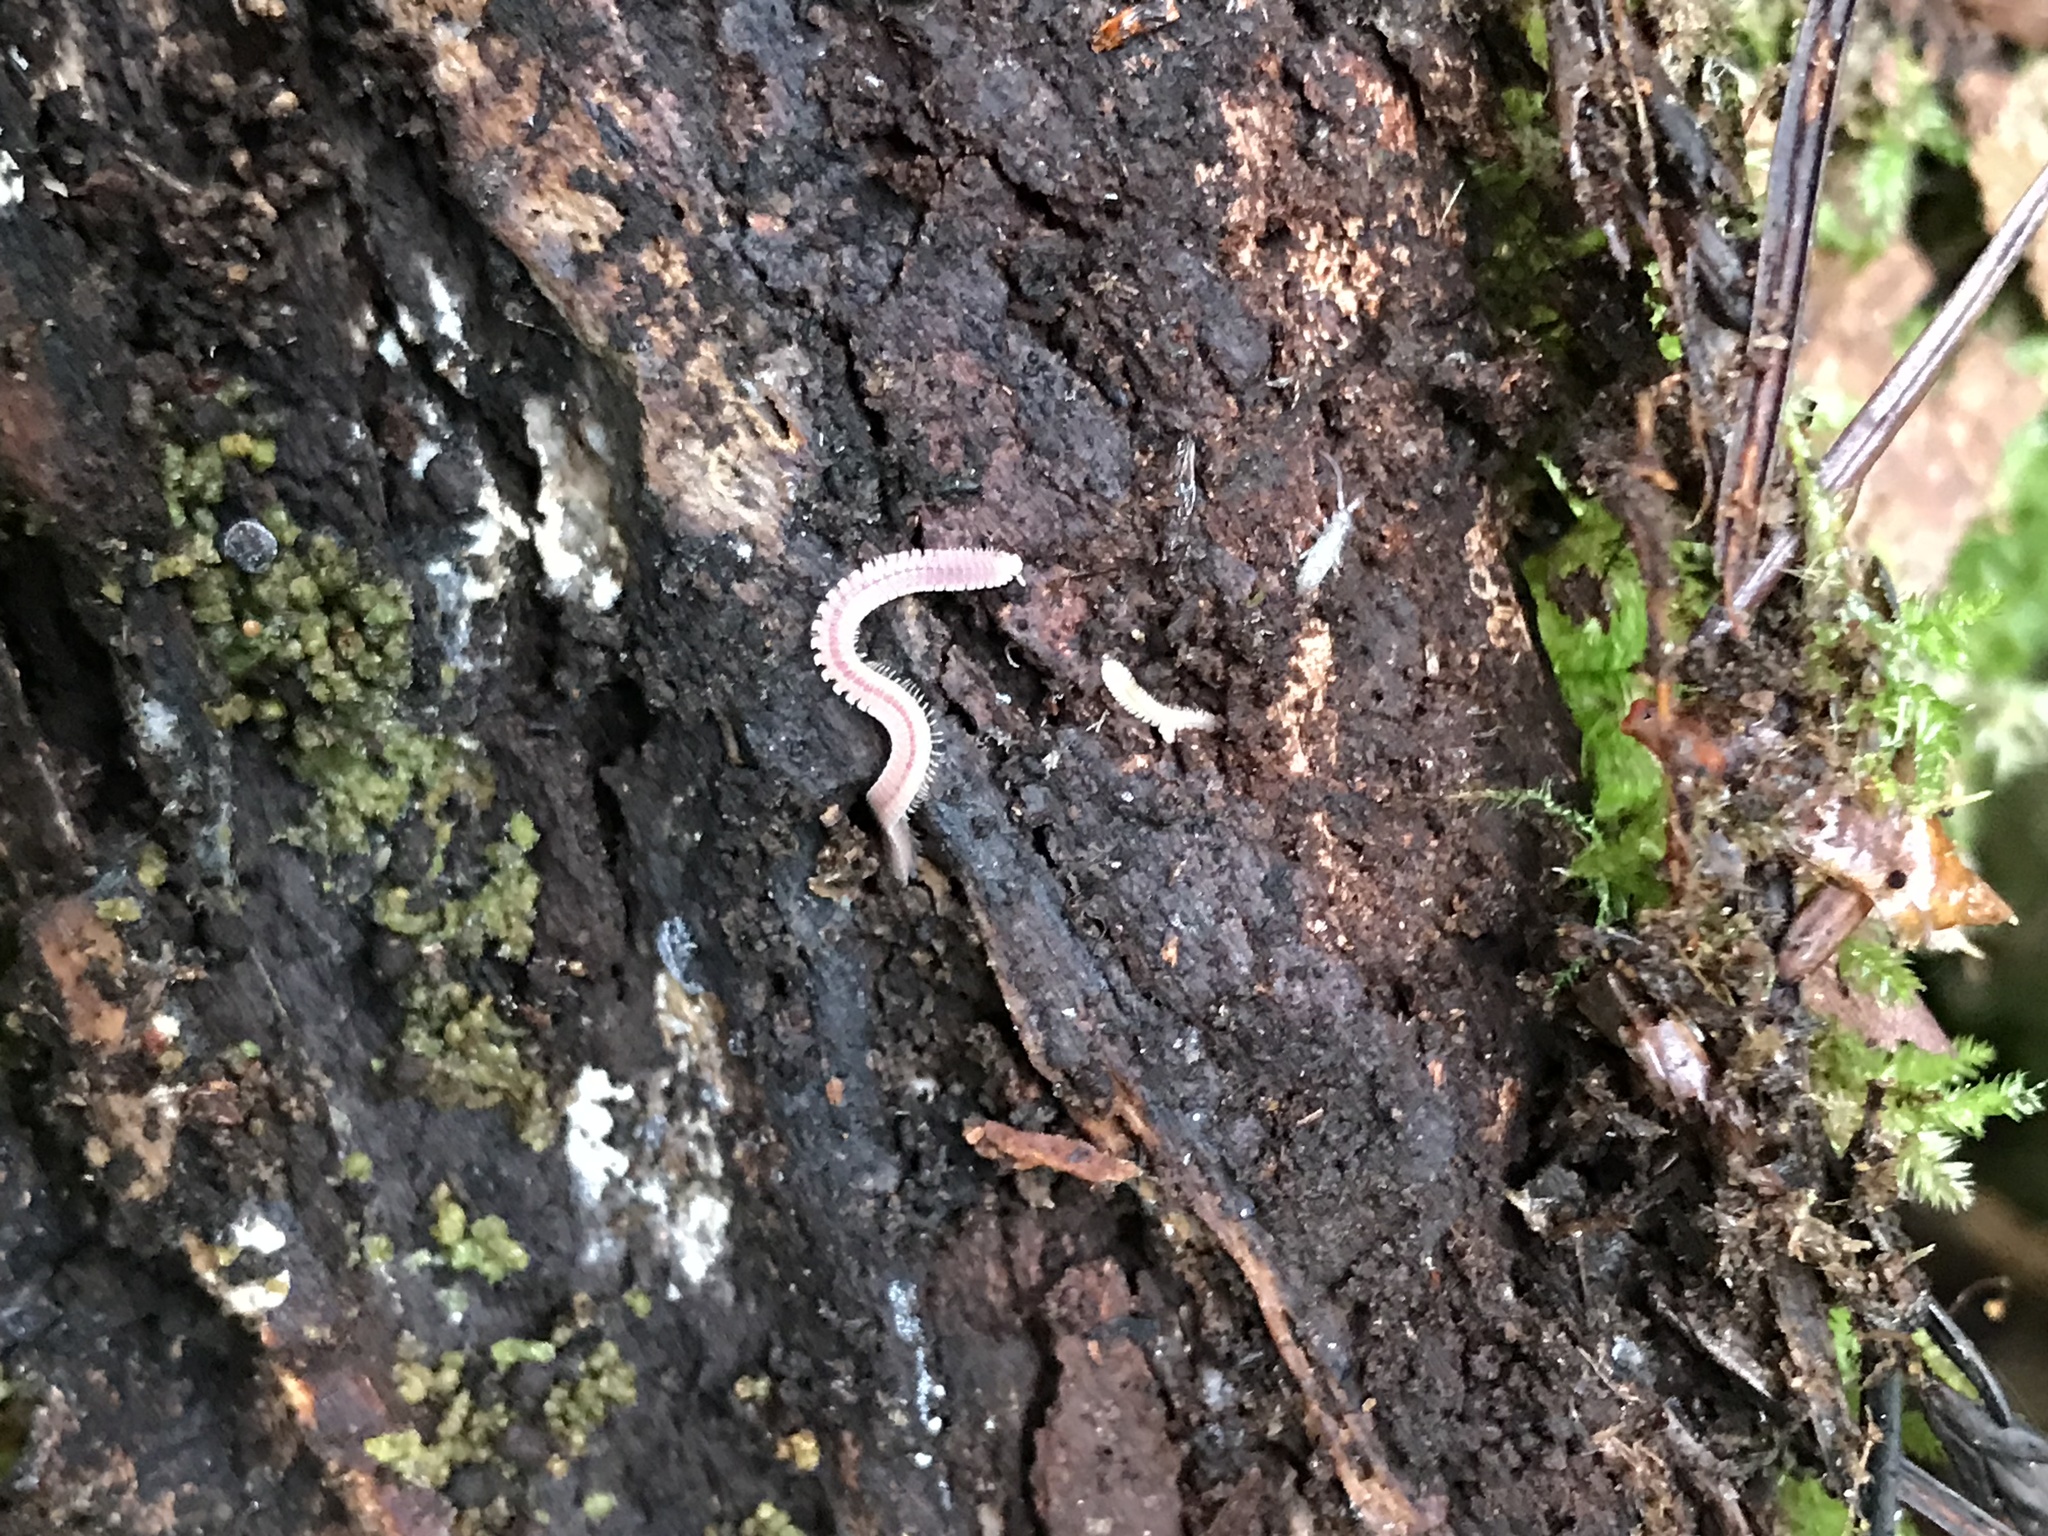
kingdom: Animalia
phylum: Arthropoda
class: Diplopoda
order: Platydesmida
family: Andrognathidae
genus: Gosodesmus
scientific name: Gosodesmus claremontus
